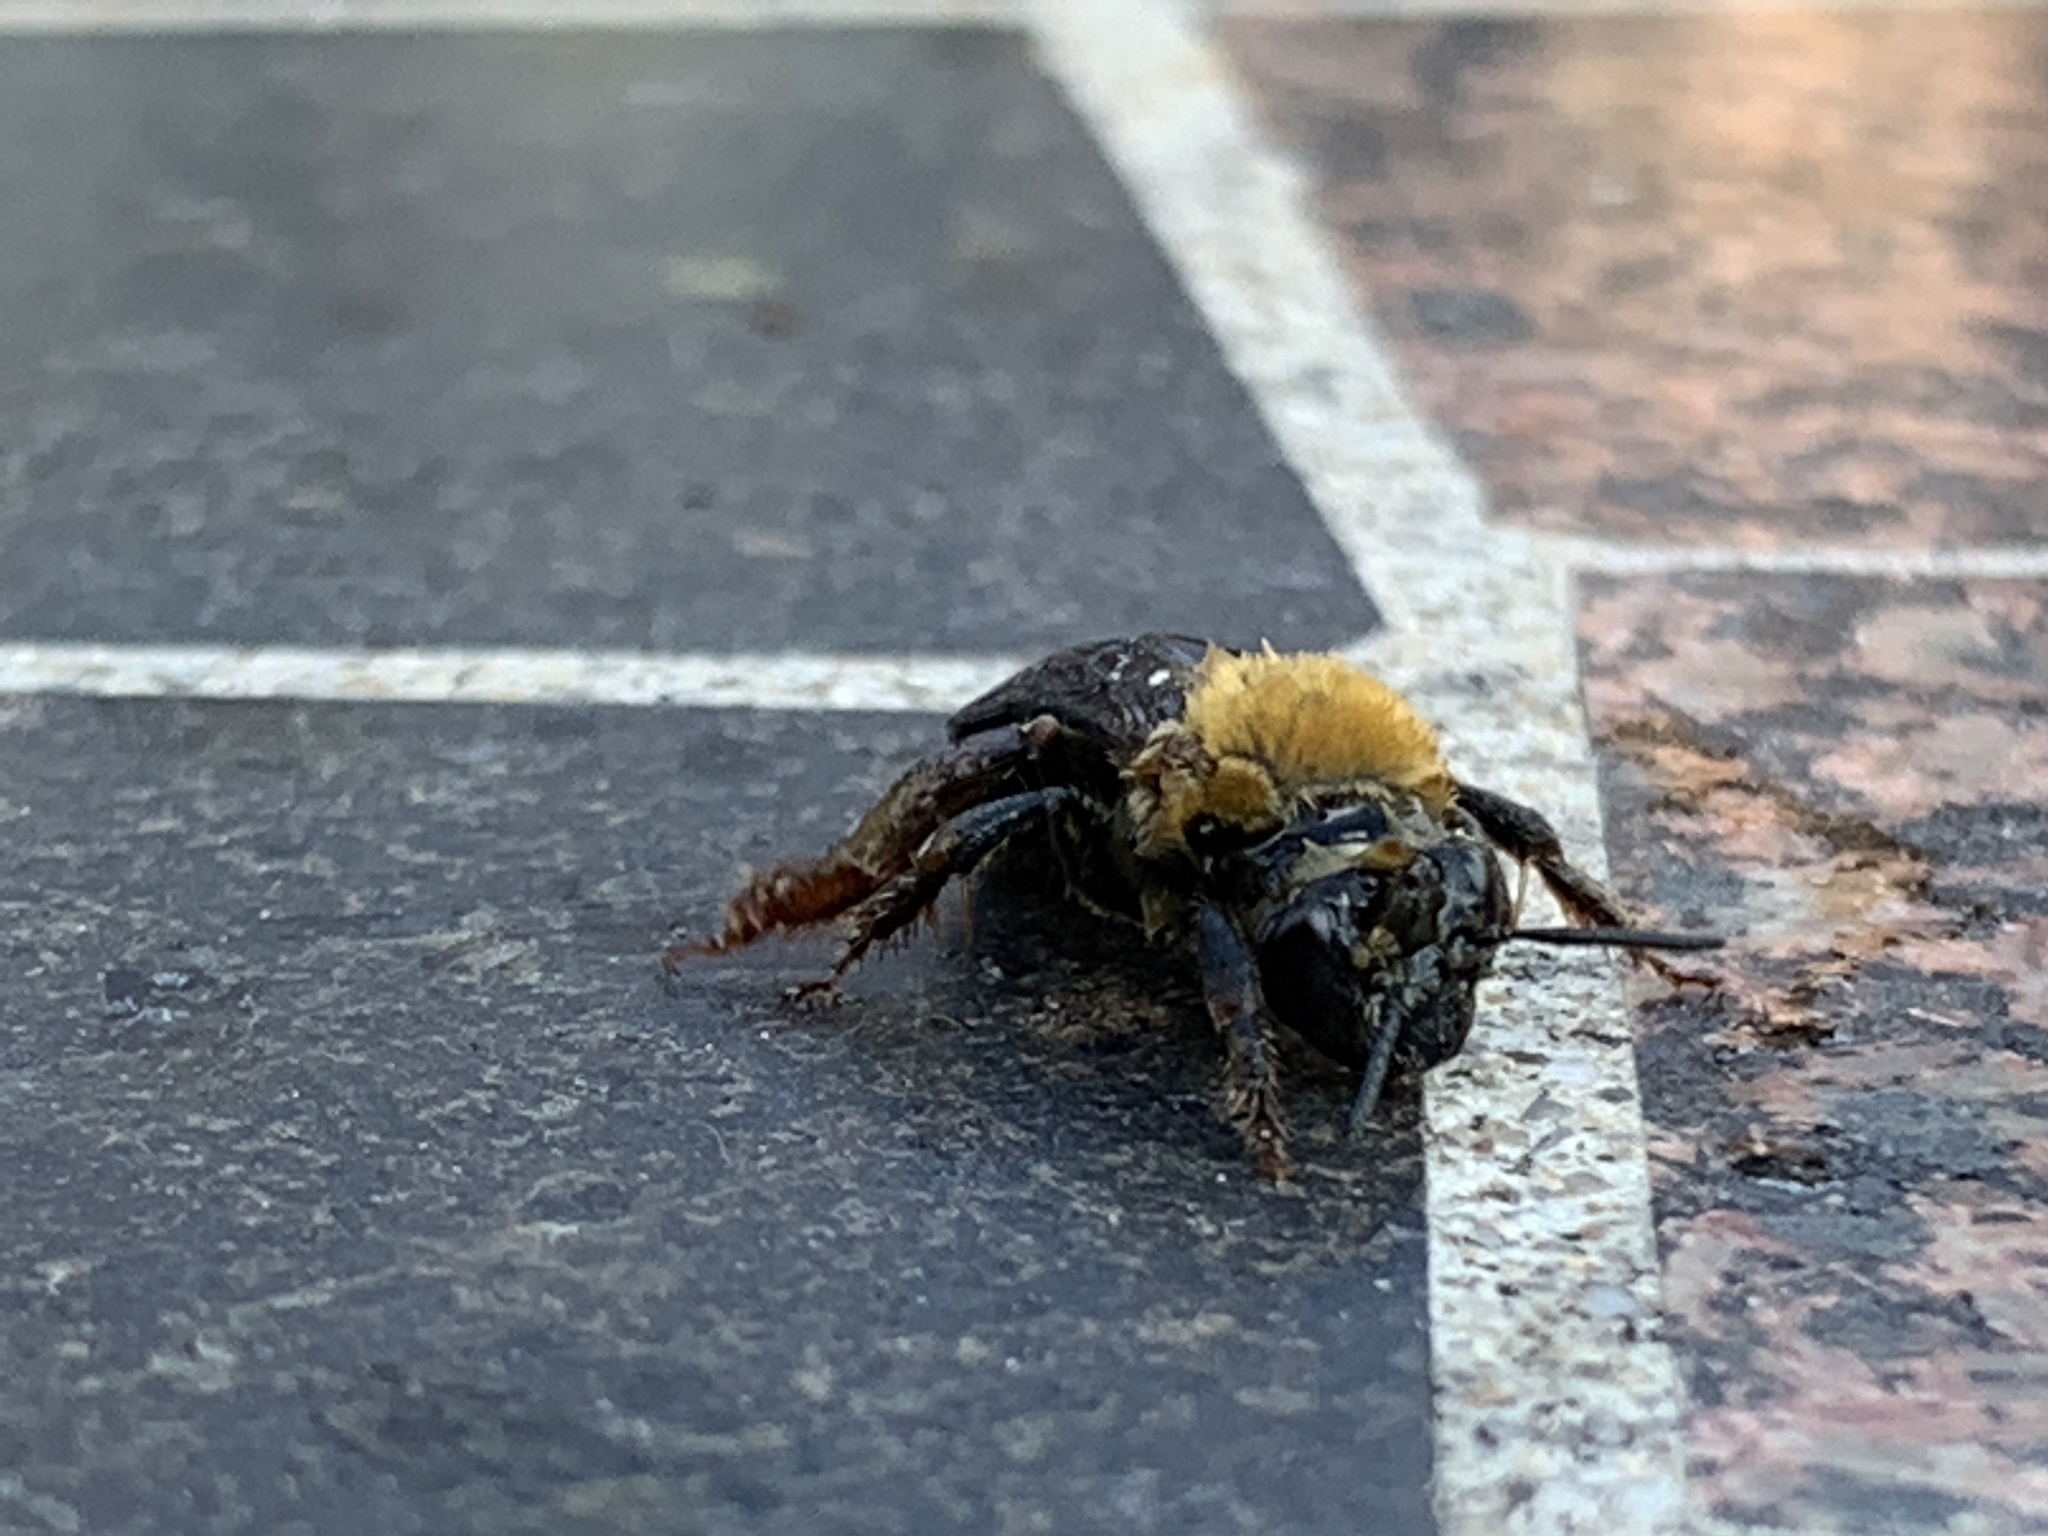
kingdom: Animalia
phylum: Arthropoda
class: Insecta
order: Hymenoptera
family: Apidae
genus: Peponapis
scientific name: Peponapis pruinosa
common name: Pruinose squash bee
